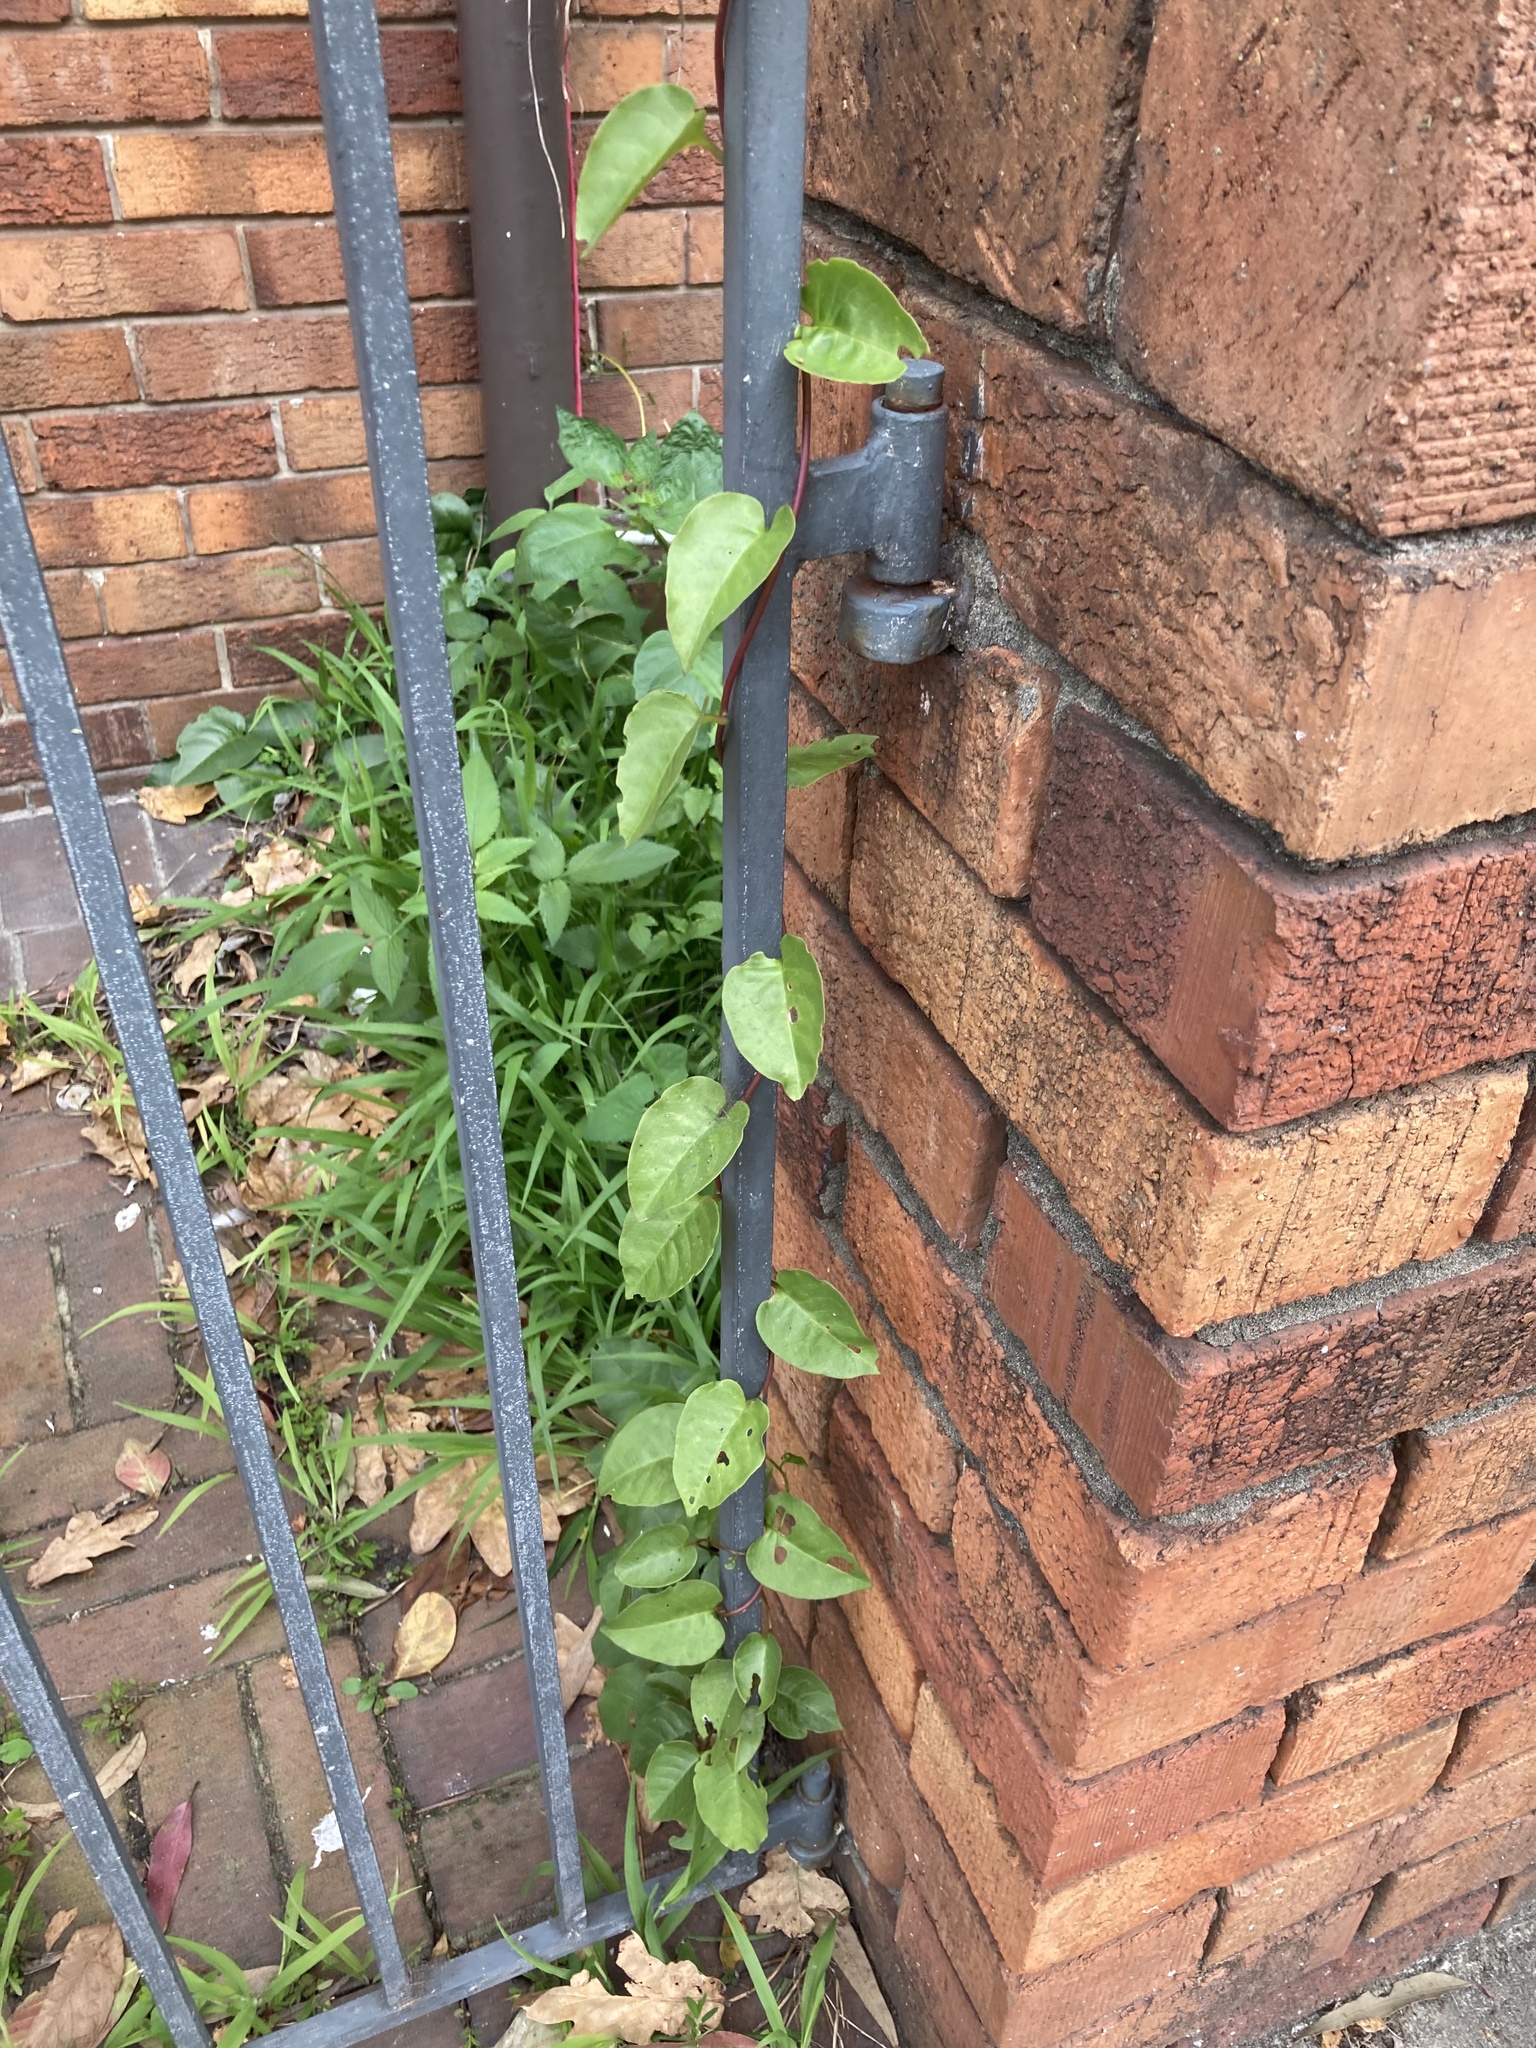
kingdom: Plantae
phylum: Tracheophyta
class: Magnoliopsida
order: Caryophyllales
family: Basellaceae
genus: Anredera
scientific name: Anredera cordifolia
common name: Heartleaf madeiravine
